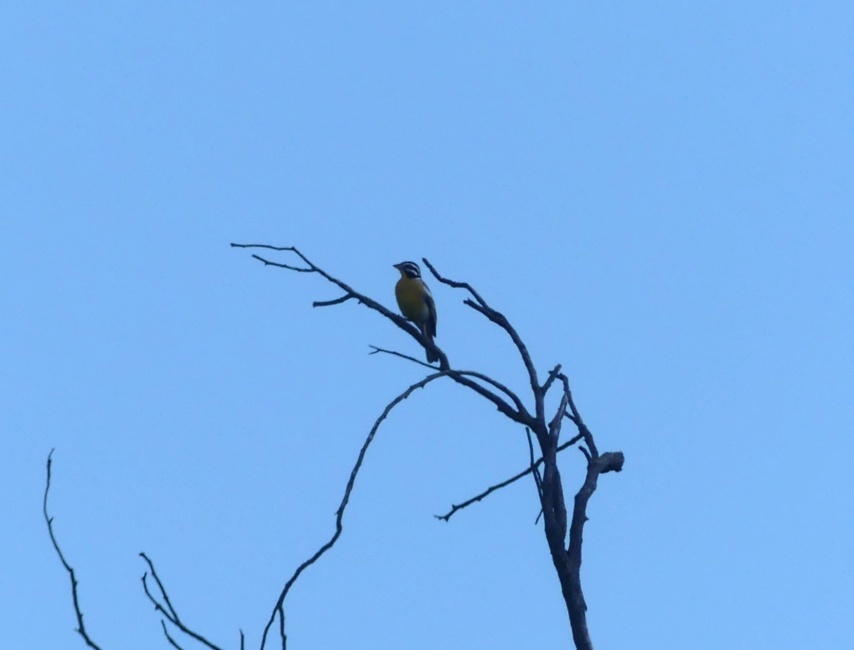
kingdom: Animalia
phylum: Chordata
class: Aves
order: Passeriformes
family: Emberizidae
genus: Emberiza
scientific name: Emberiza flaviventris
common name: Golden-breasted bunting
